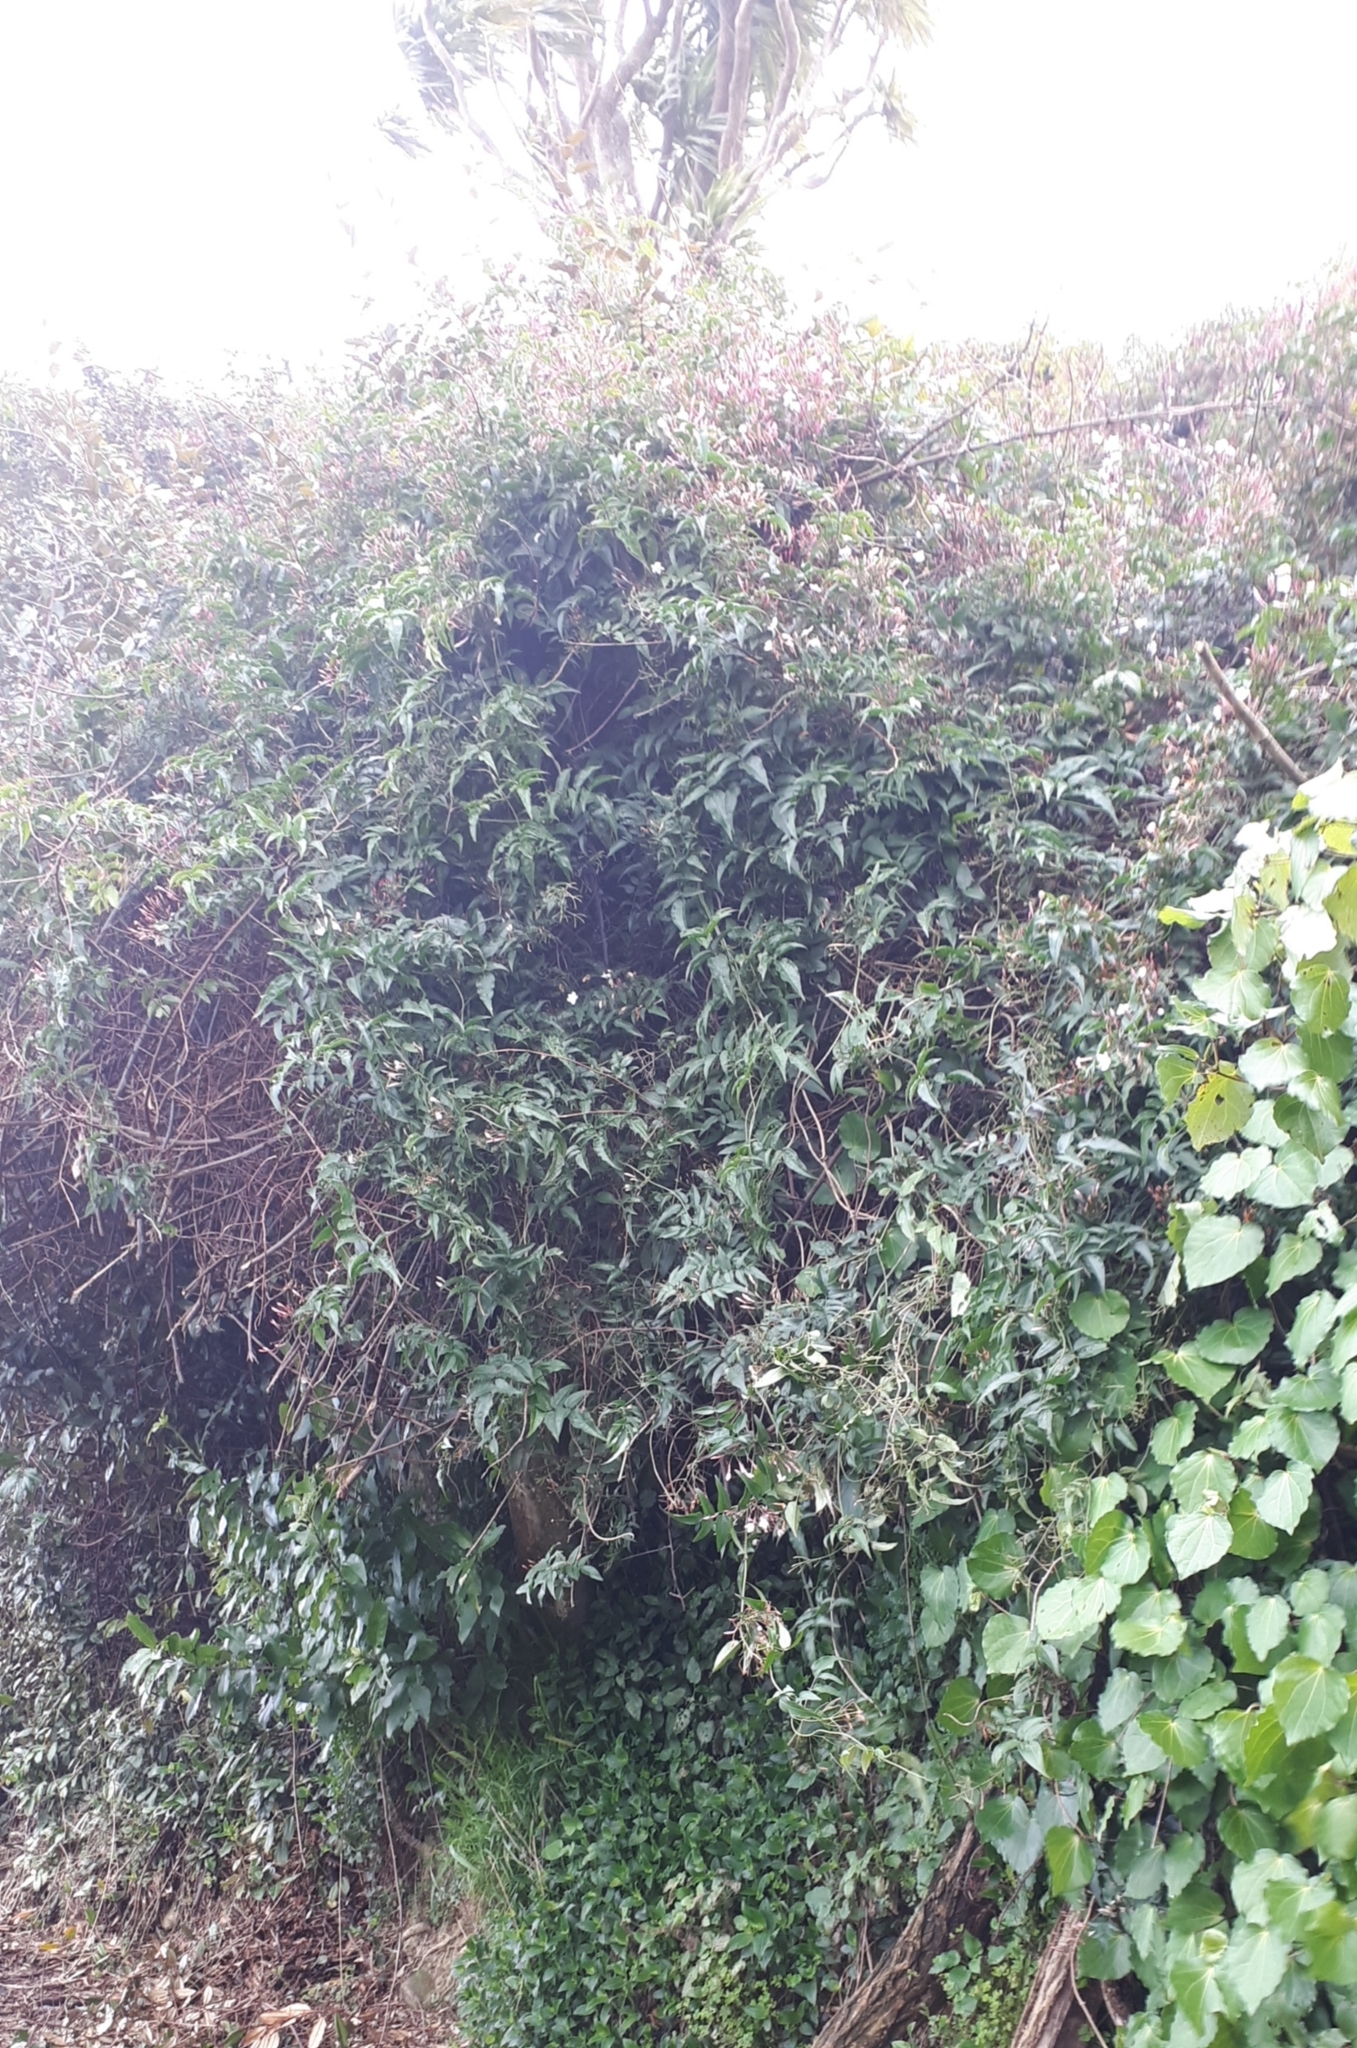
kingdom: Plantae
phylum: Tracheophyta
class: Magnoliopsida
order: Lamiales
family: Oleaceae
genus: Jasminum
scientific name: Jasminum polyanthum
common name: Pink jasmine
